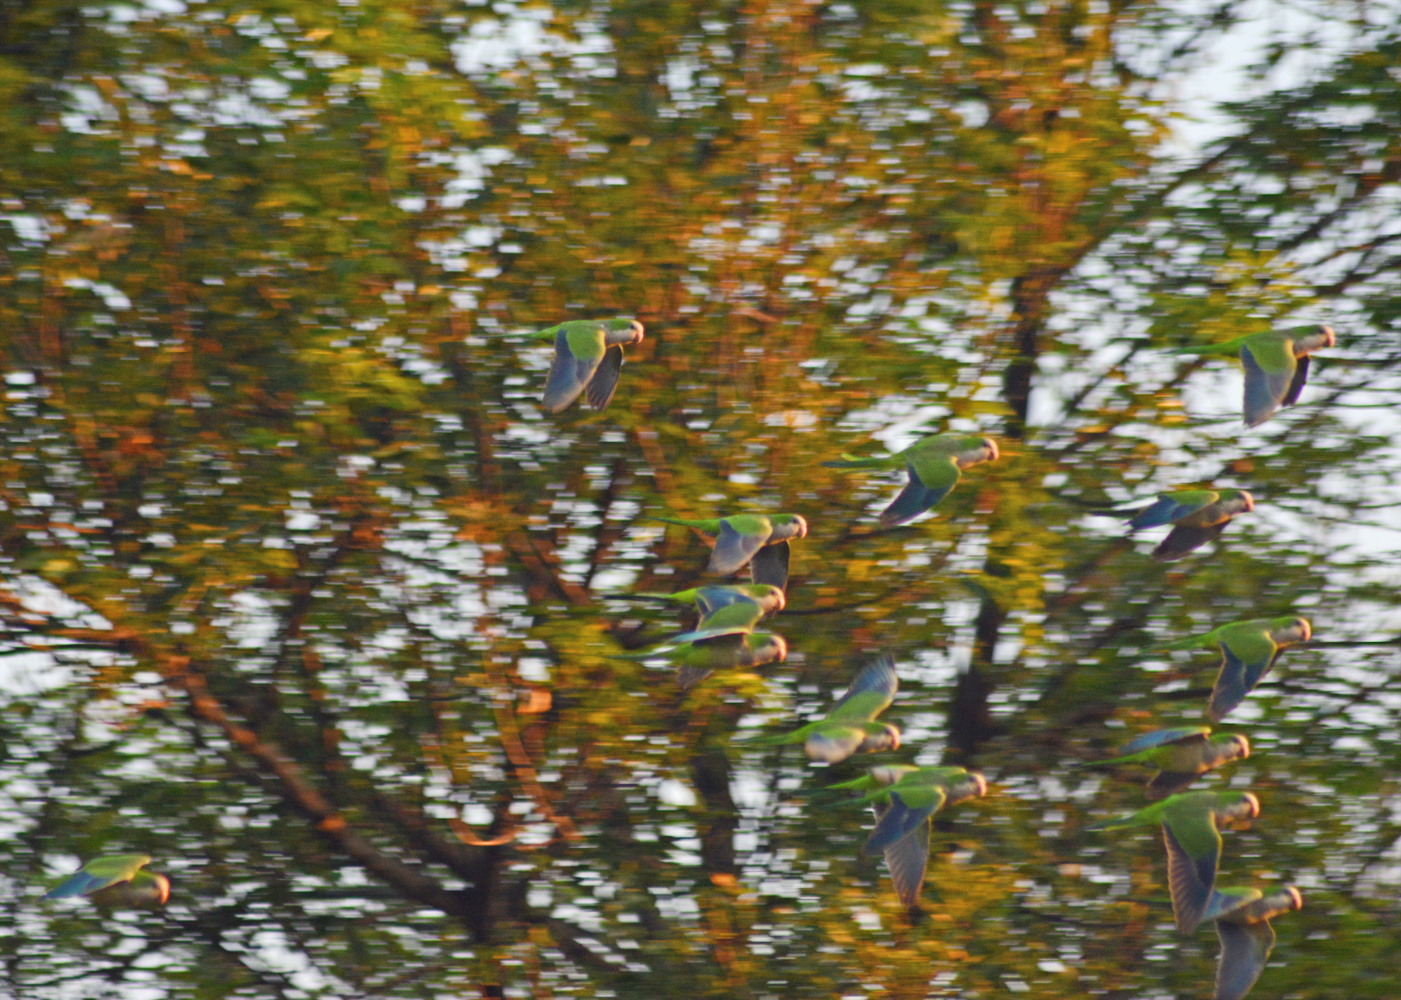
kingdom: Animalia
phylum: Chordata
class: Aves
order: Psittaciformes
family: Psittacidae
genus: Myiopsitta
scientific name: Myiopsitta monachus
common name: Monk parakeet
